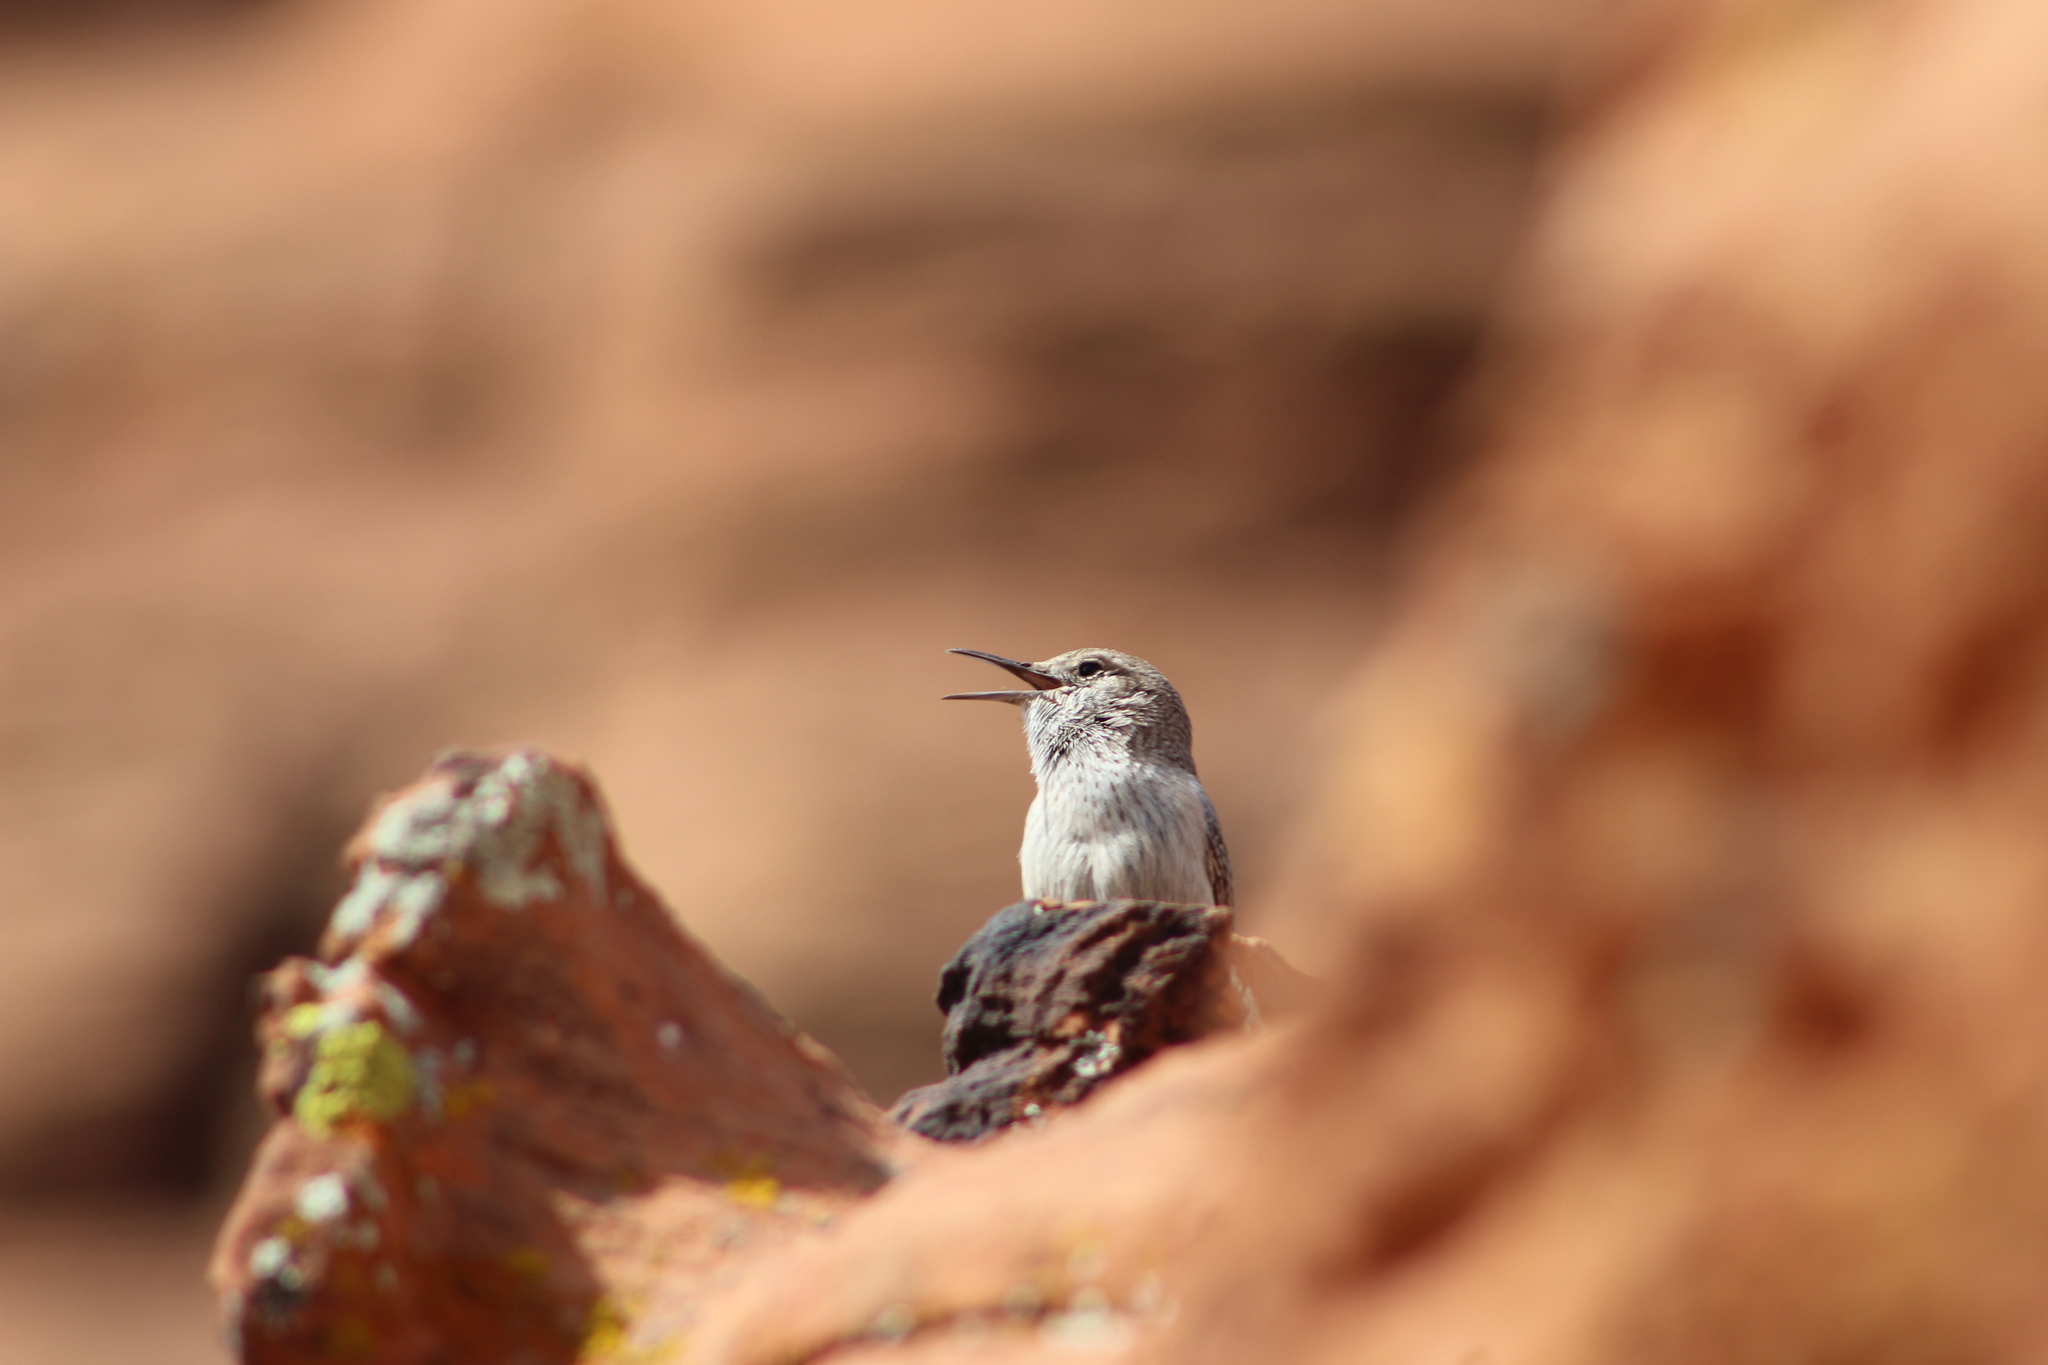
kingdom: Animalia
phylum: Chordata
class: Aves
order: Passeriformes
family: Troglodytidae
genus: Salpinctes
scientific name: Salpinctes obsoletus
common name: Rock wren
